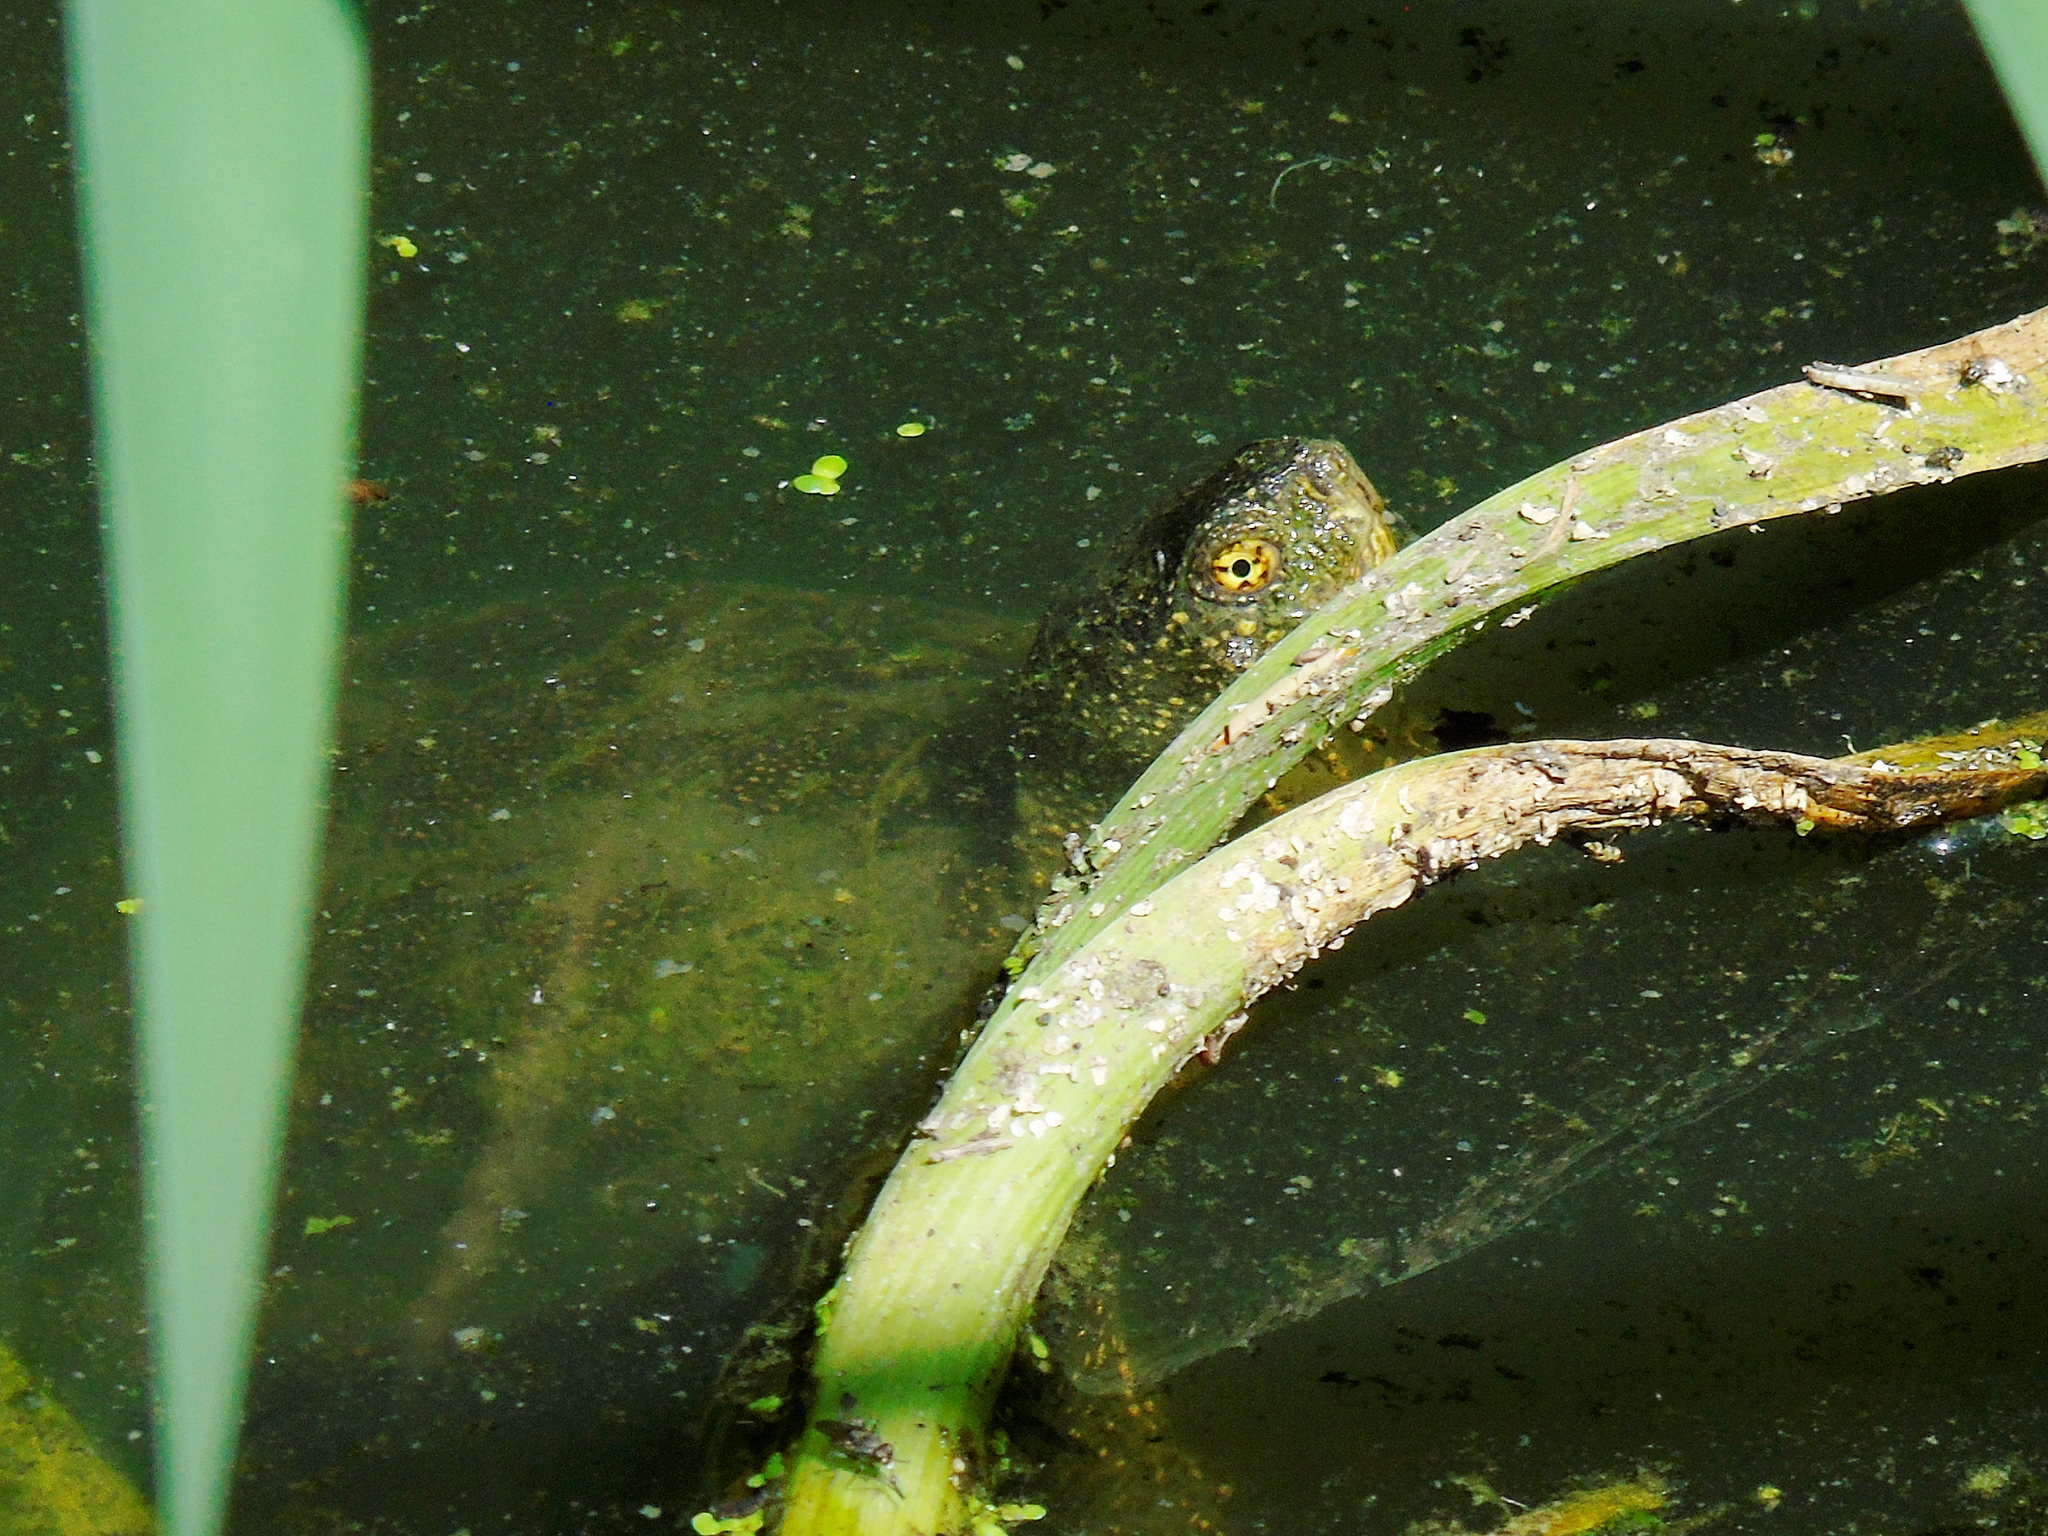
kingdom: Animalia
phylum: Chordata
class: Testudines
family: Emydidae
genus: Emys
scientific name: Emys orbicularis
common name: European pond turtle
